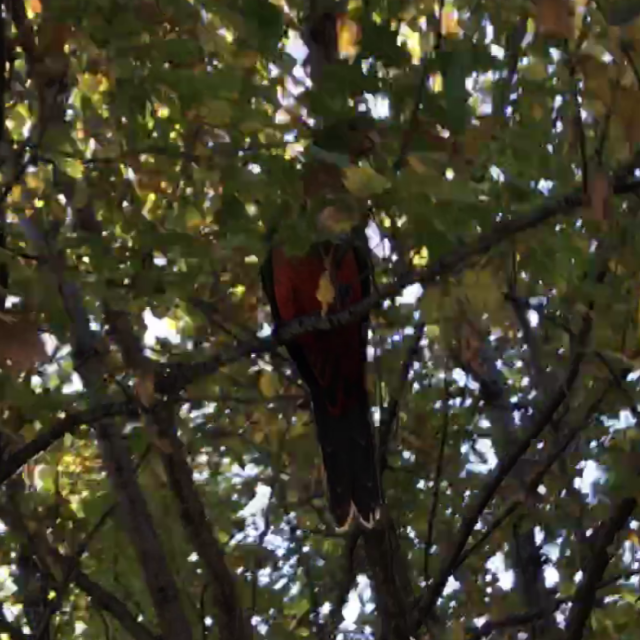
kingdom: Animalia
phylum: Chordata
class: Aves
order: Psittaciformes
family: Psittacidae
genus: Alisterus
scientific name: Alisterus scapularis
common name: Australian king parrot
